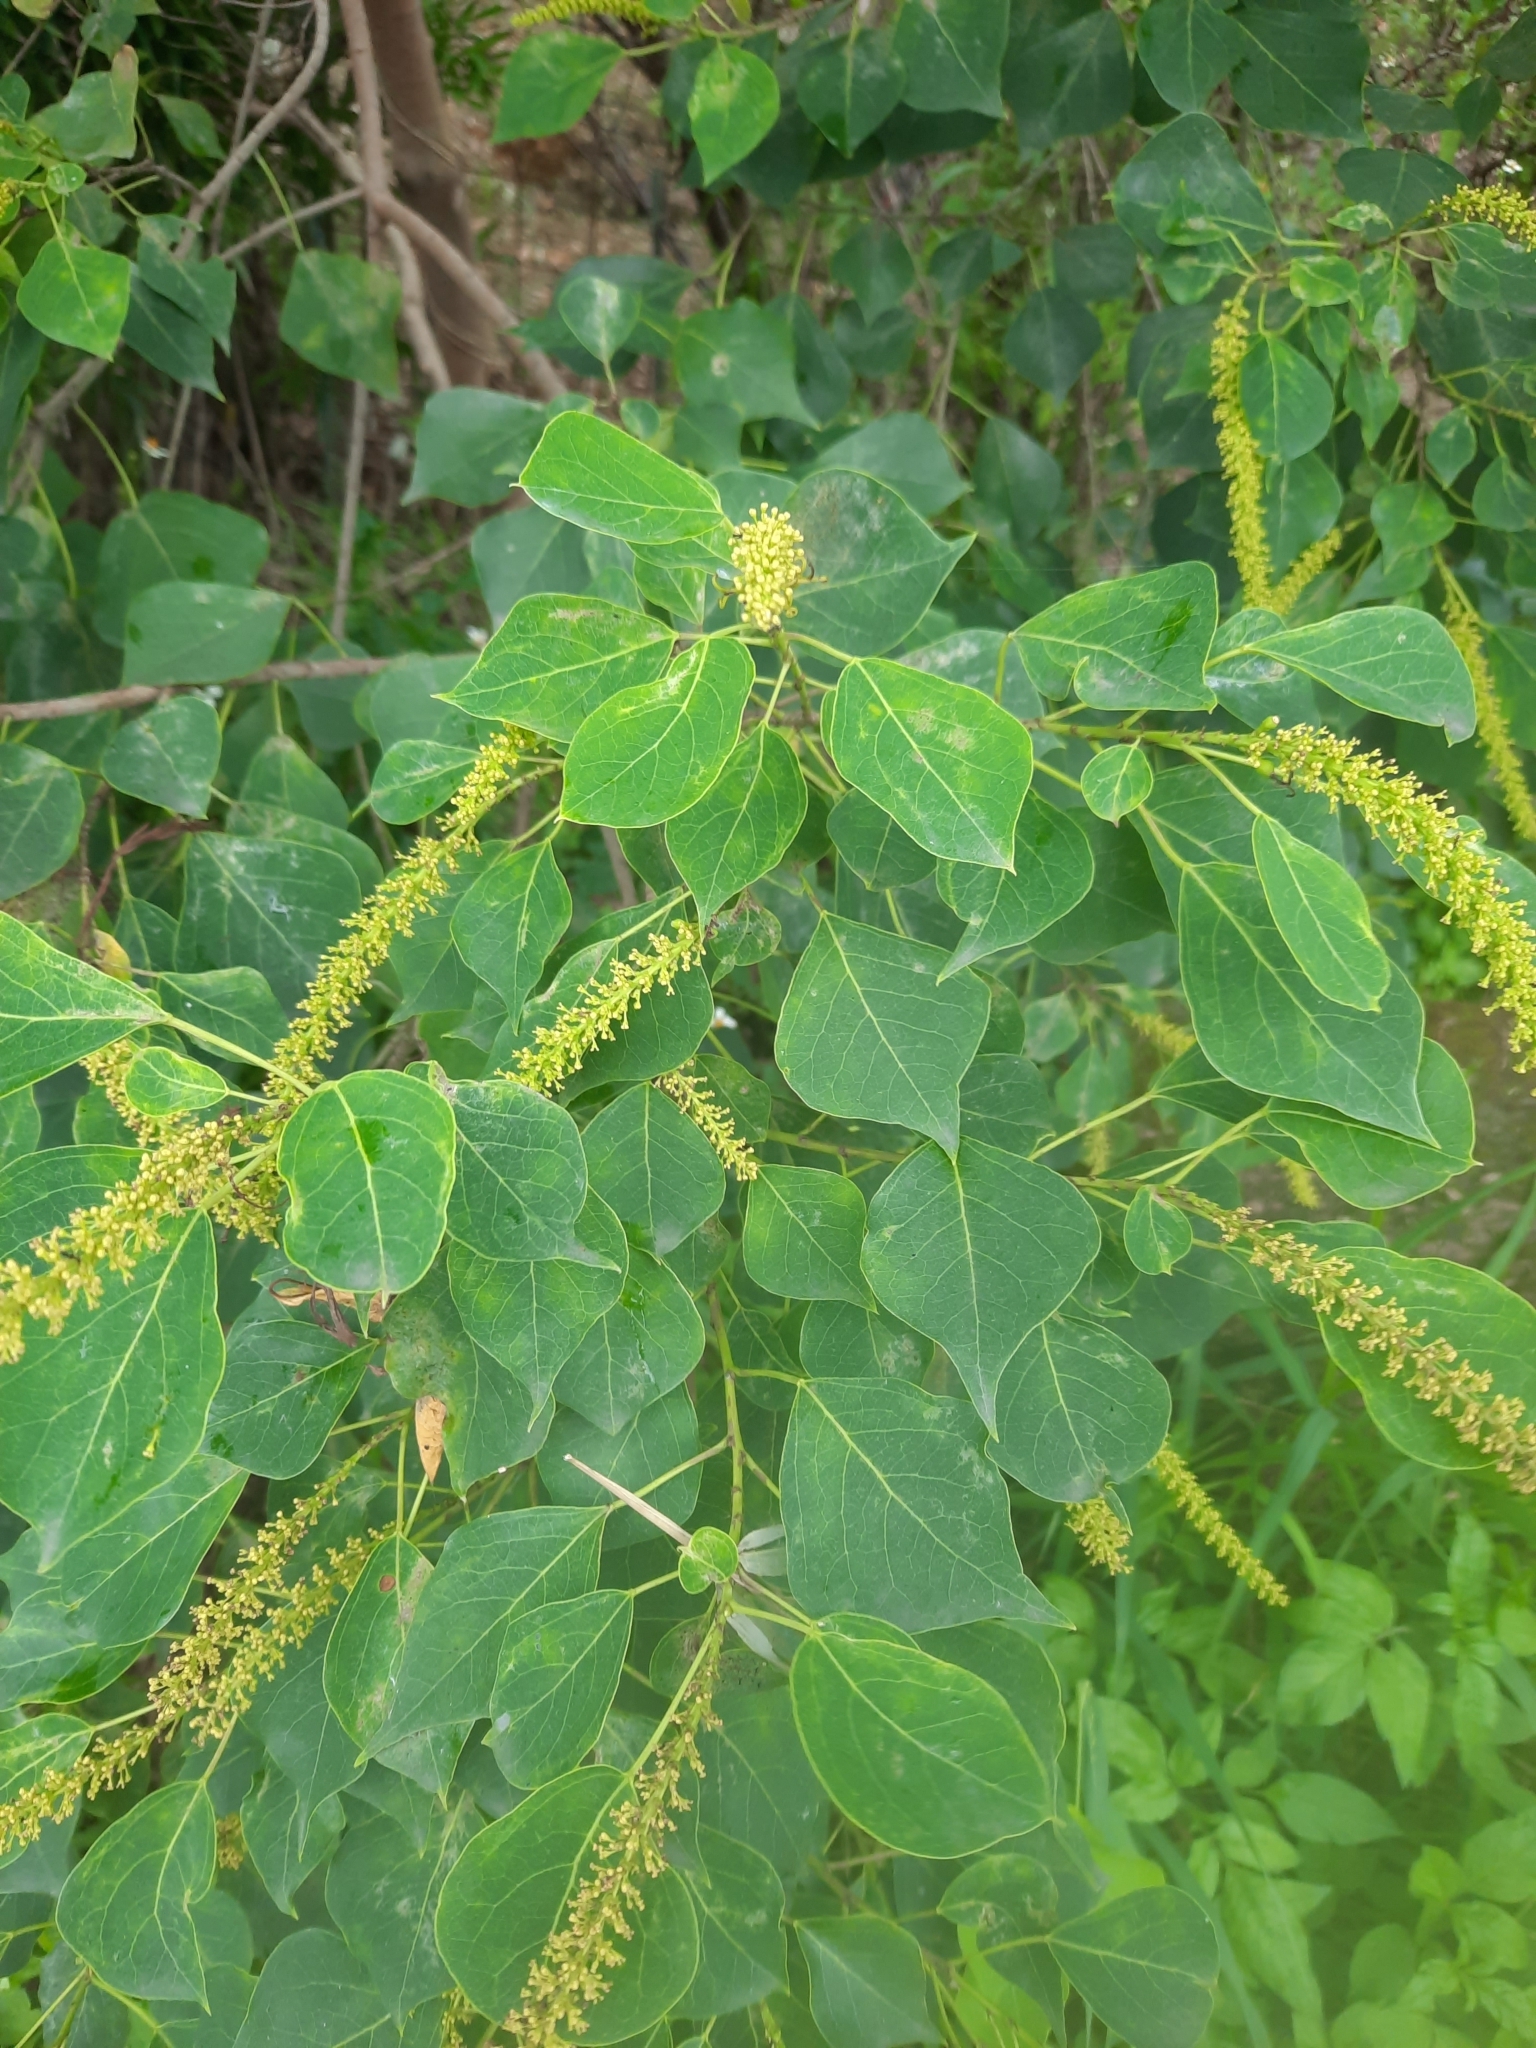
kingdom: Plantae
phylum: Tracheophyta
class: Magnoliopsida
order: Malpighiales
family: Euphorbiaceae
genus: Triadica
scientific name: Triadica sebifera
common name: Chinese tallow
